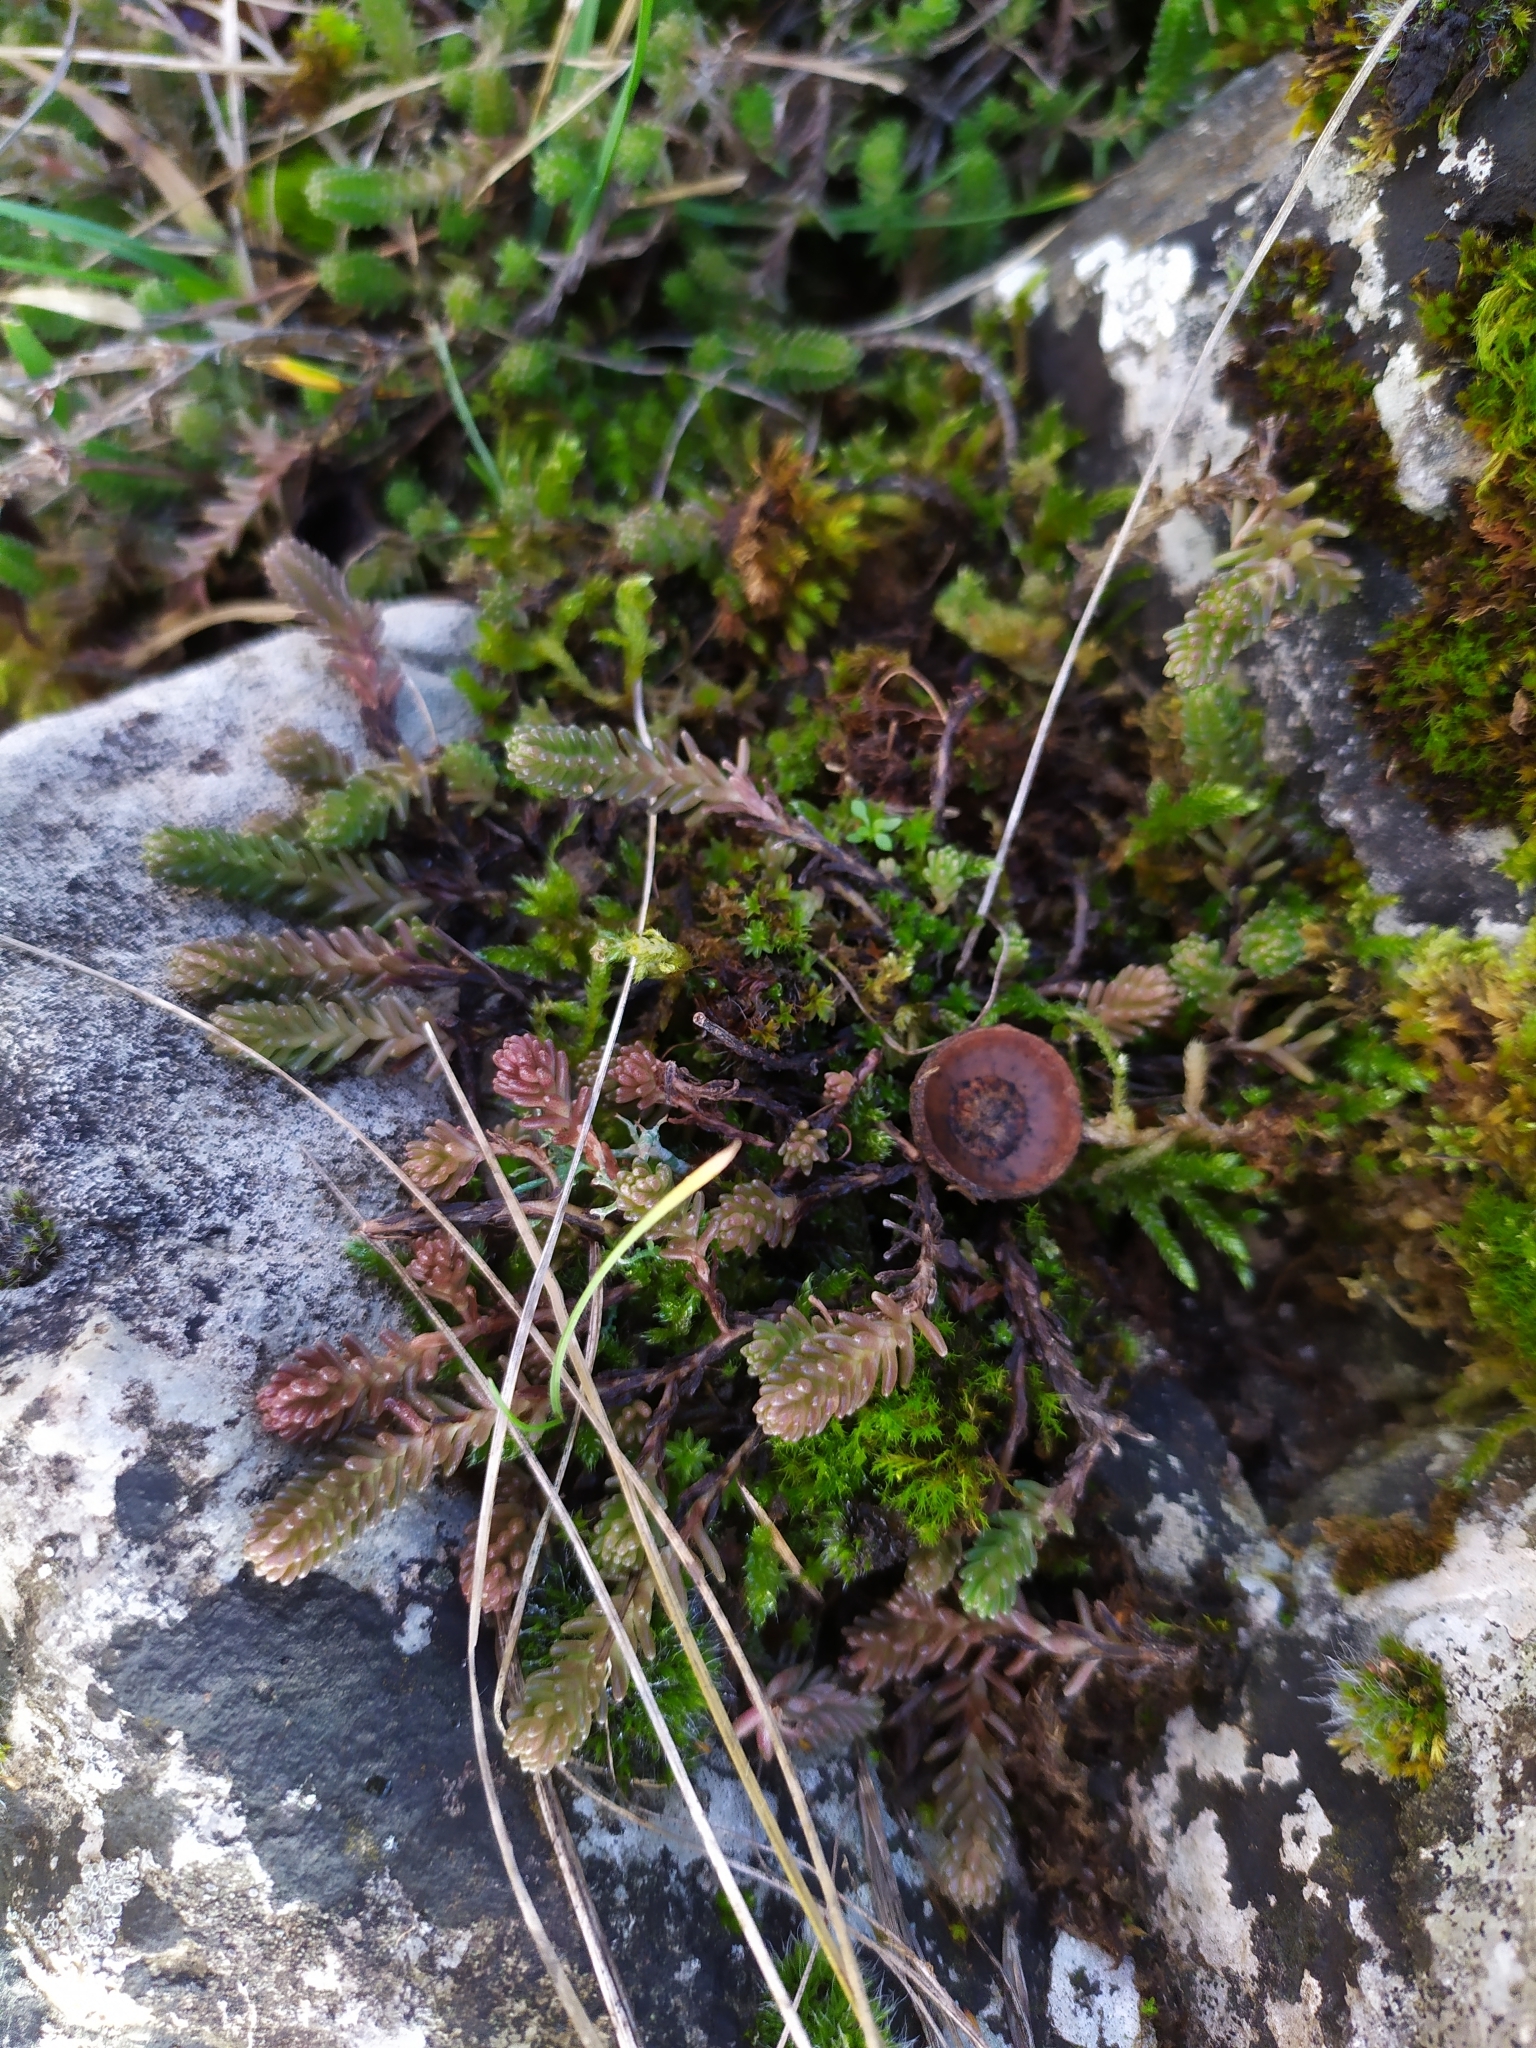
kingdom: Plantae
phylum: Tracheophyta
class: Magnoliopsida
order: Saxifragales
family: Crassulaceae
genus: Sedum
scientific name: Sedum sexangulare
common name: Tasteless stonecrop
